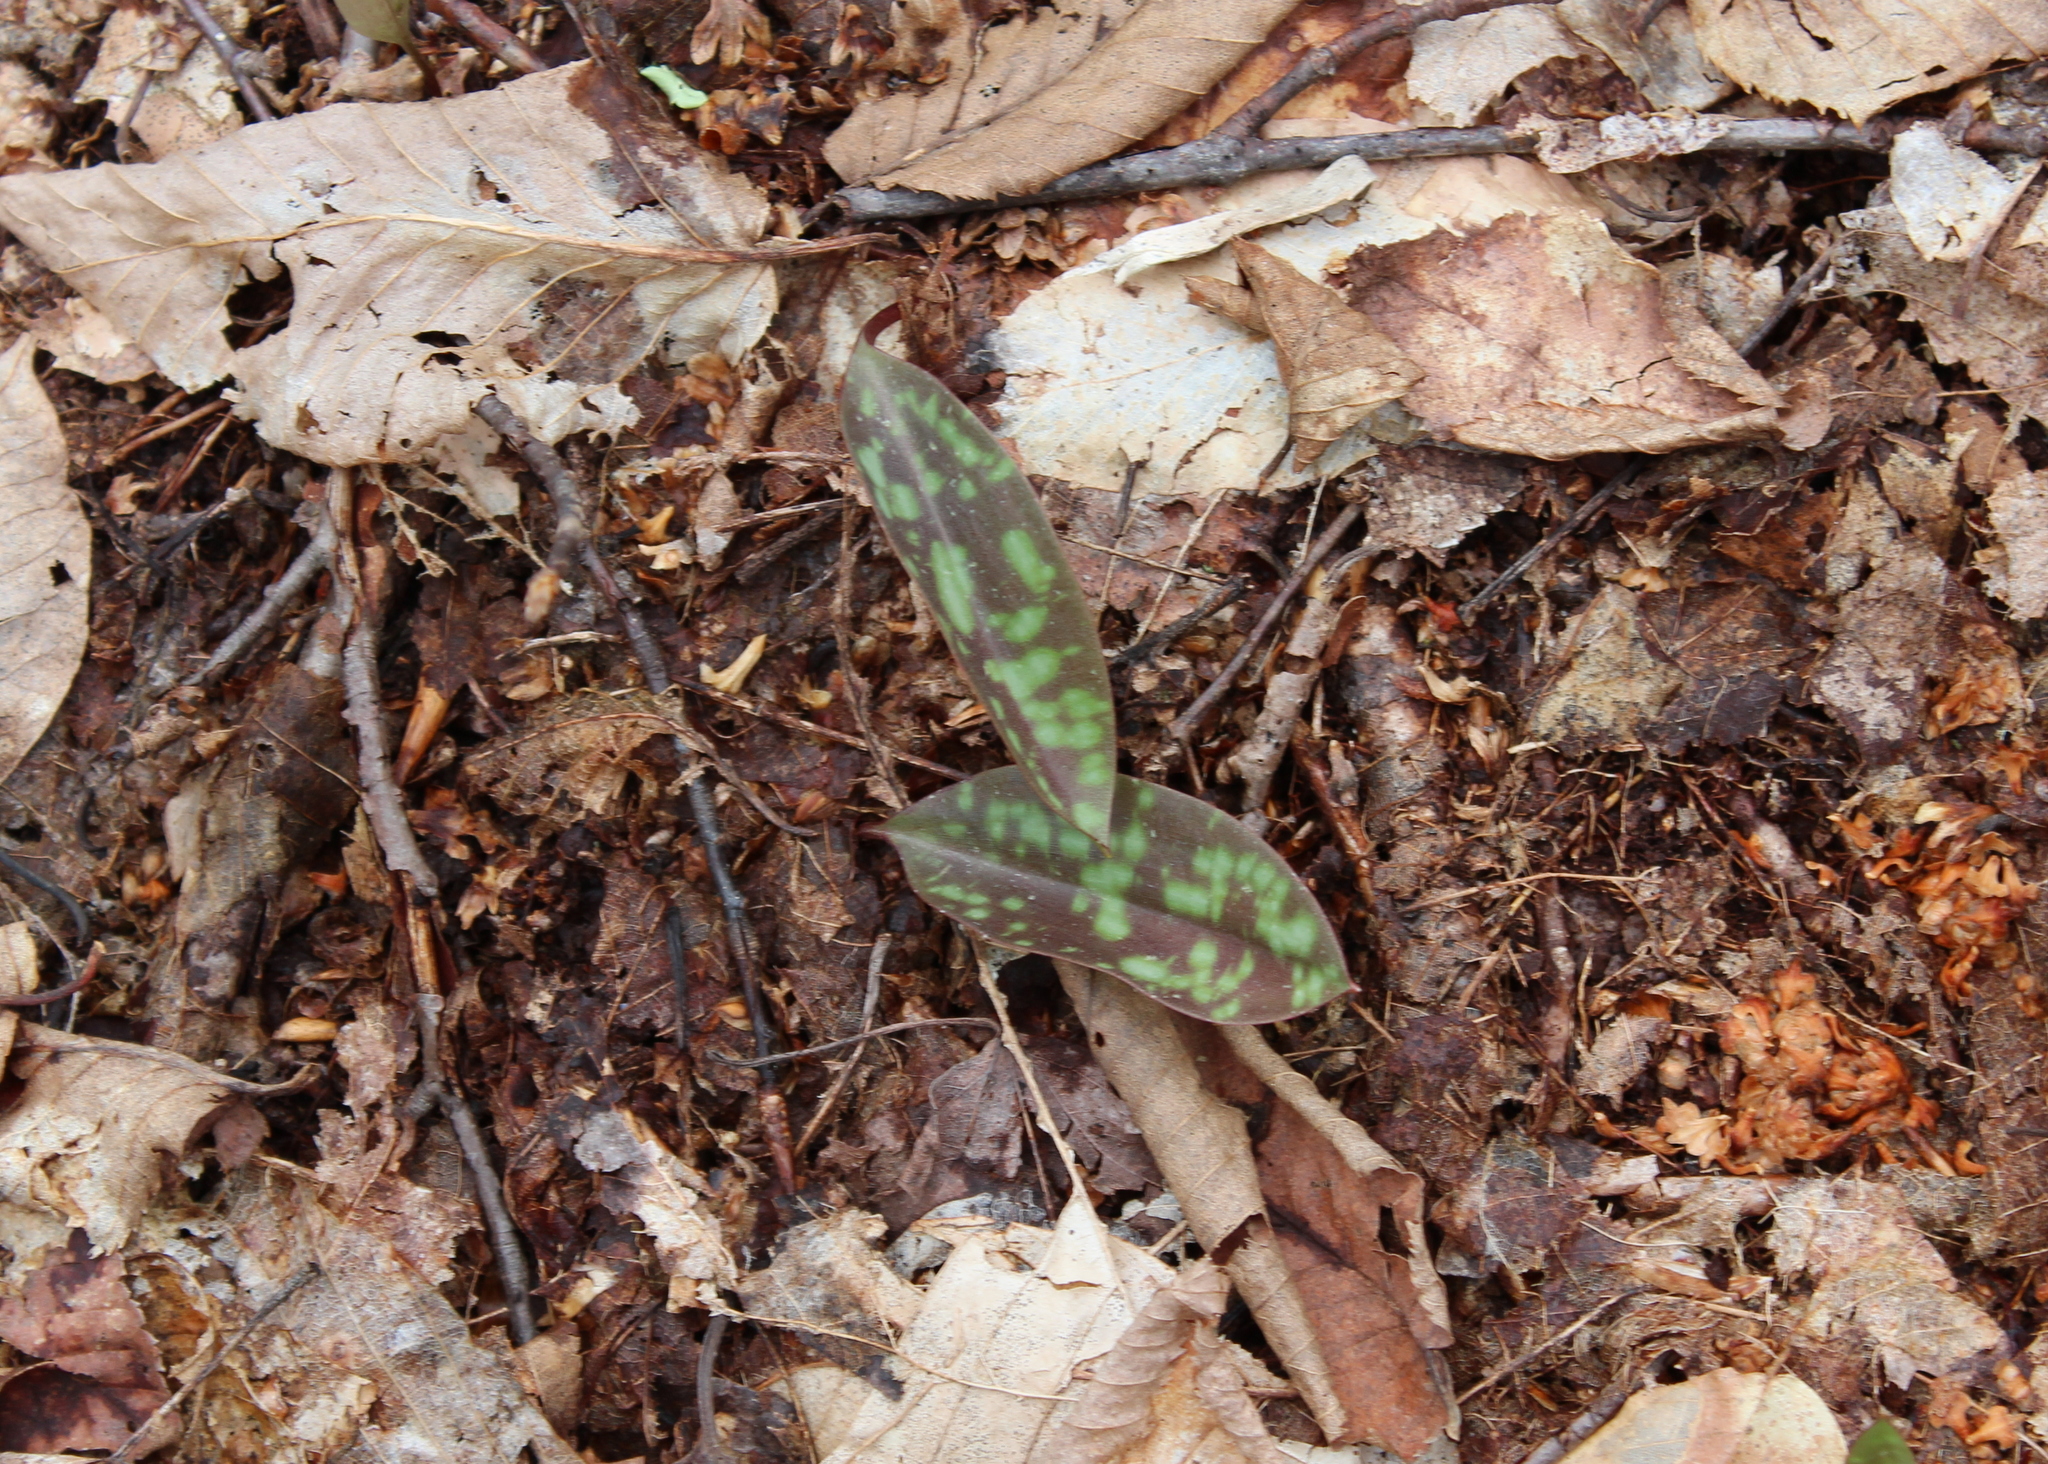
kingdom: Plantae
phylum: Tracheophyta
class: Liliopsida
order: Liliales
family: Liliaceae
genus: Erythronium
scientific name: Erythronium americanum
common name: Yellow adder's-tongue
